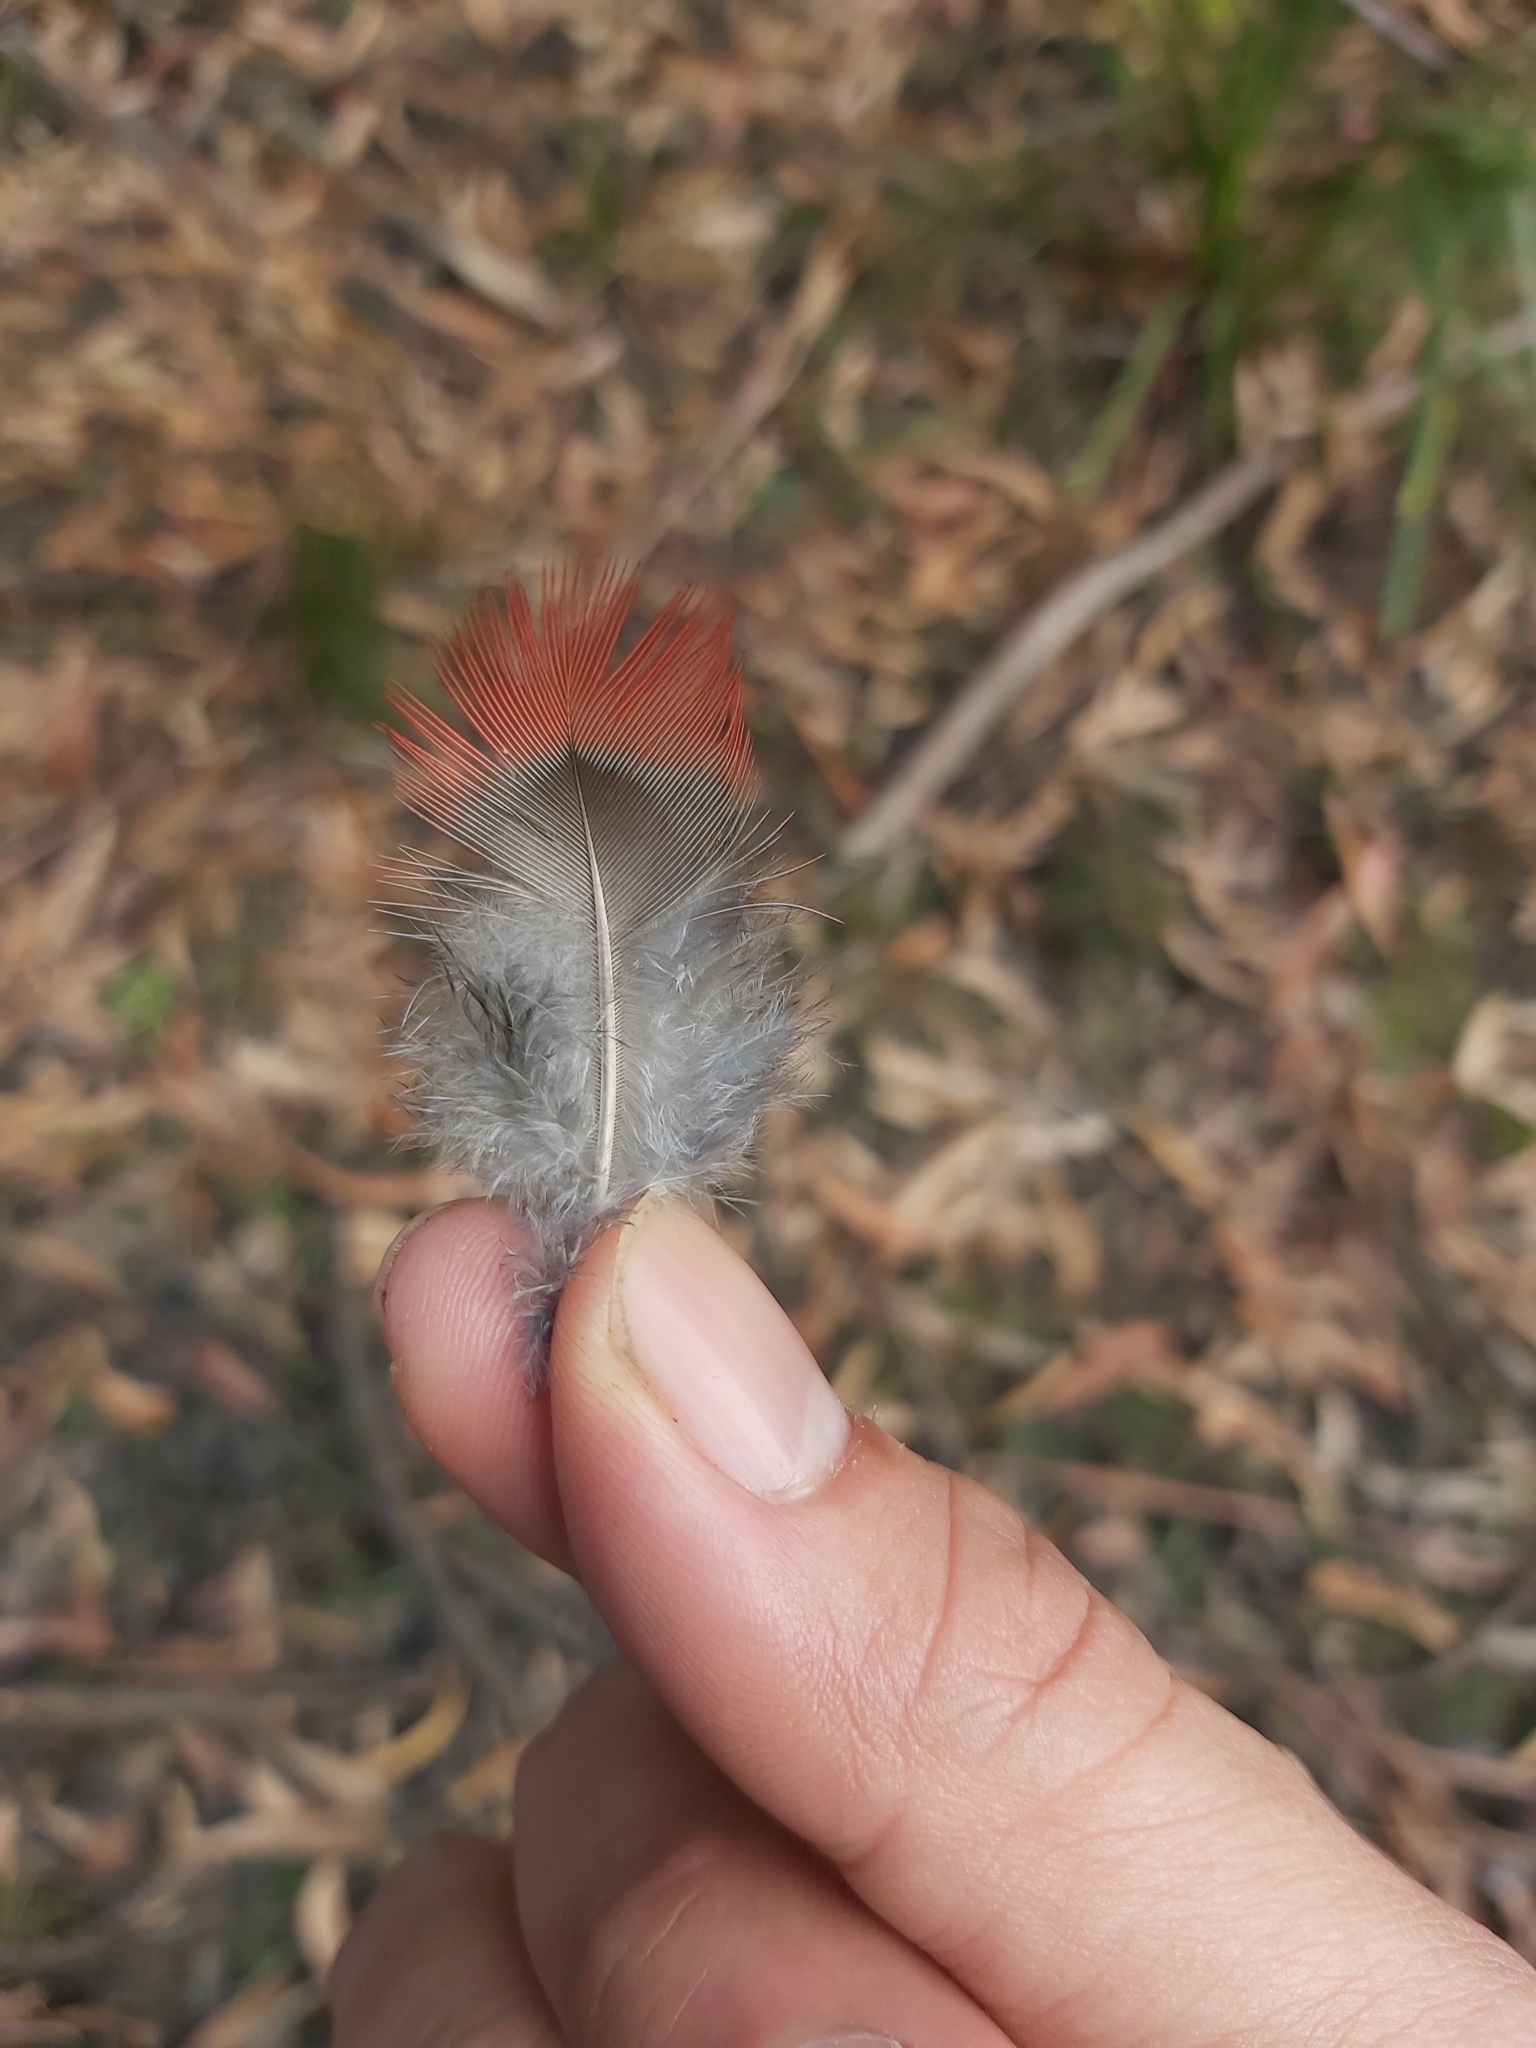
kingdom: Animalia
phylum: Chordata
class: Aves
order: Psittaciformes
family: Psittacidae
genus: Platycercus
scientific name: Platycercus elegans
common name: Crimson rosella
